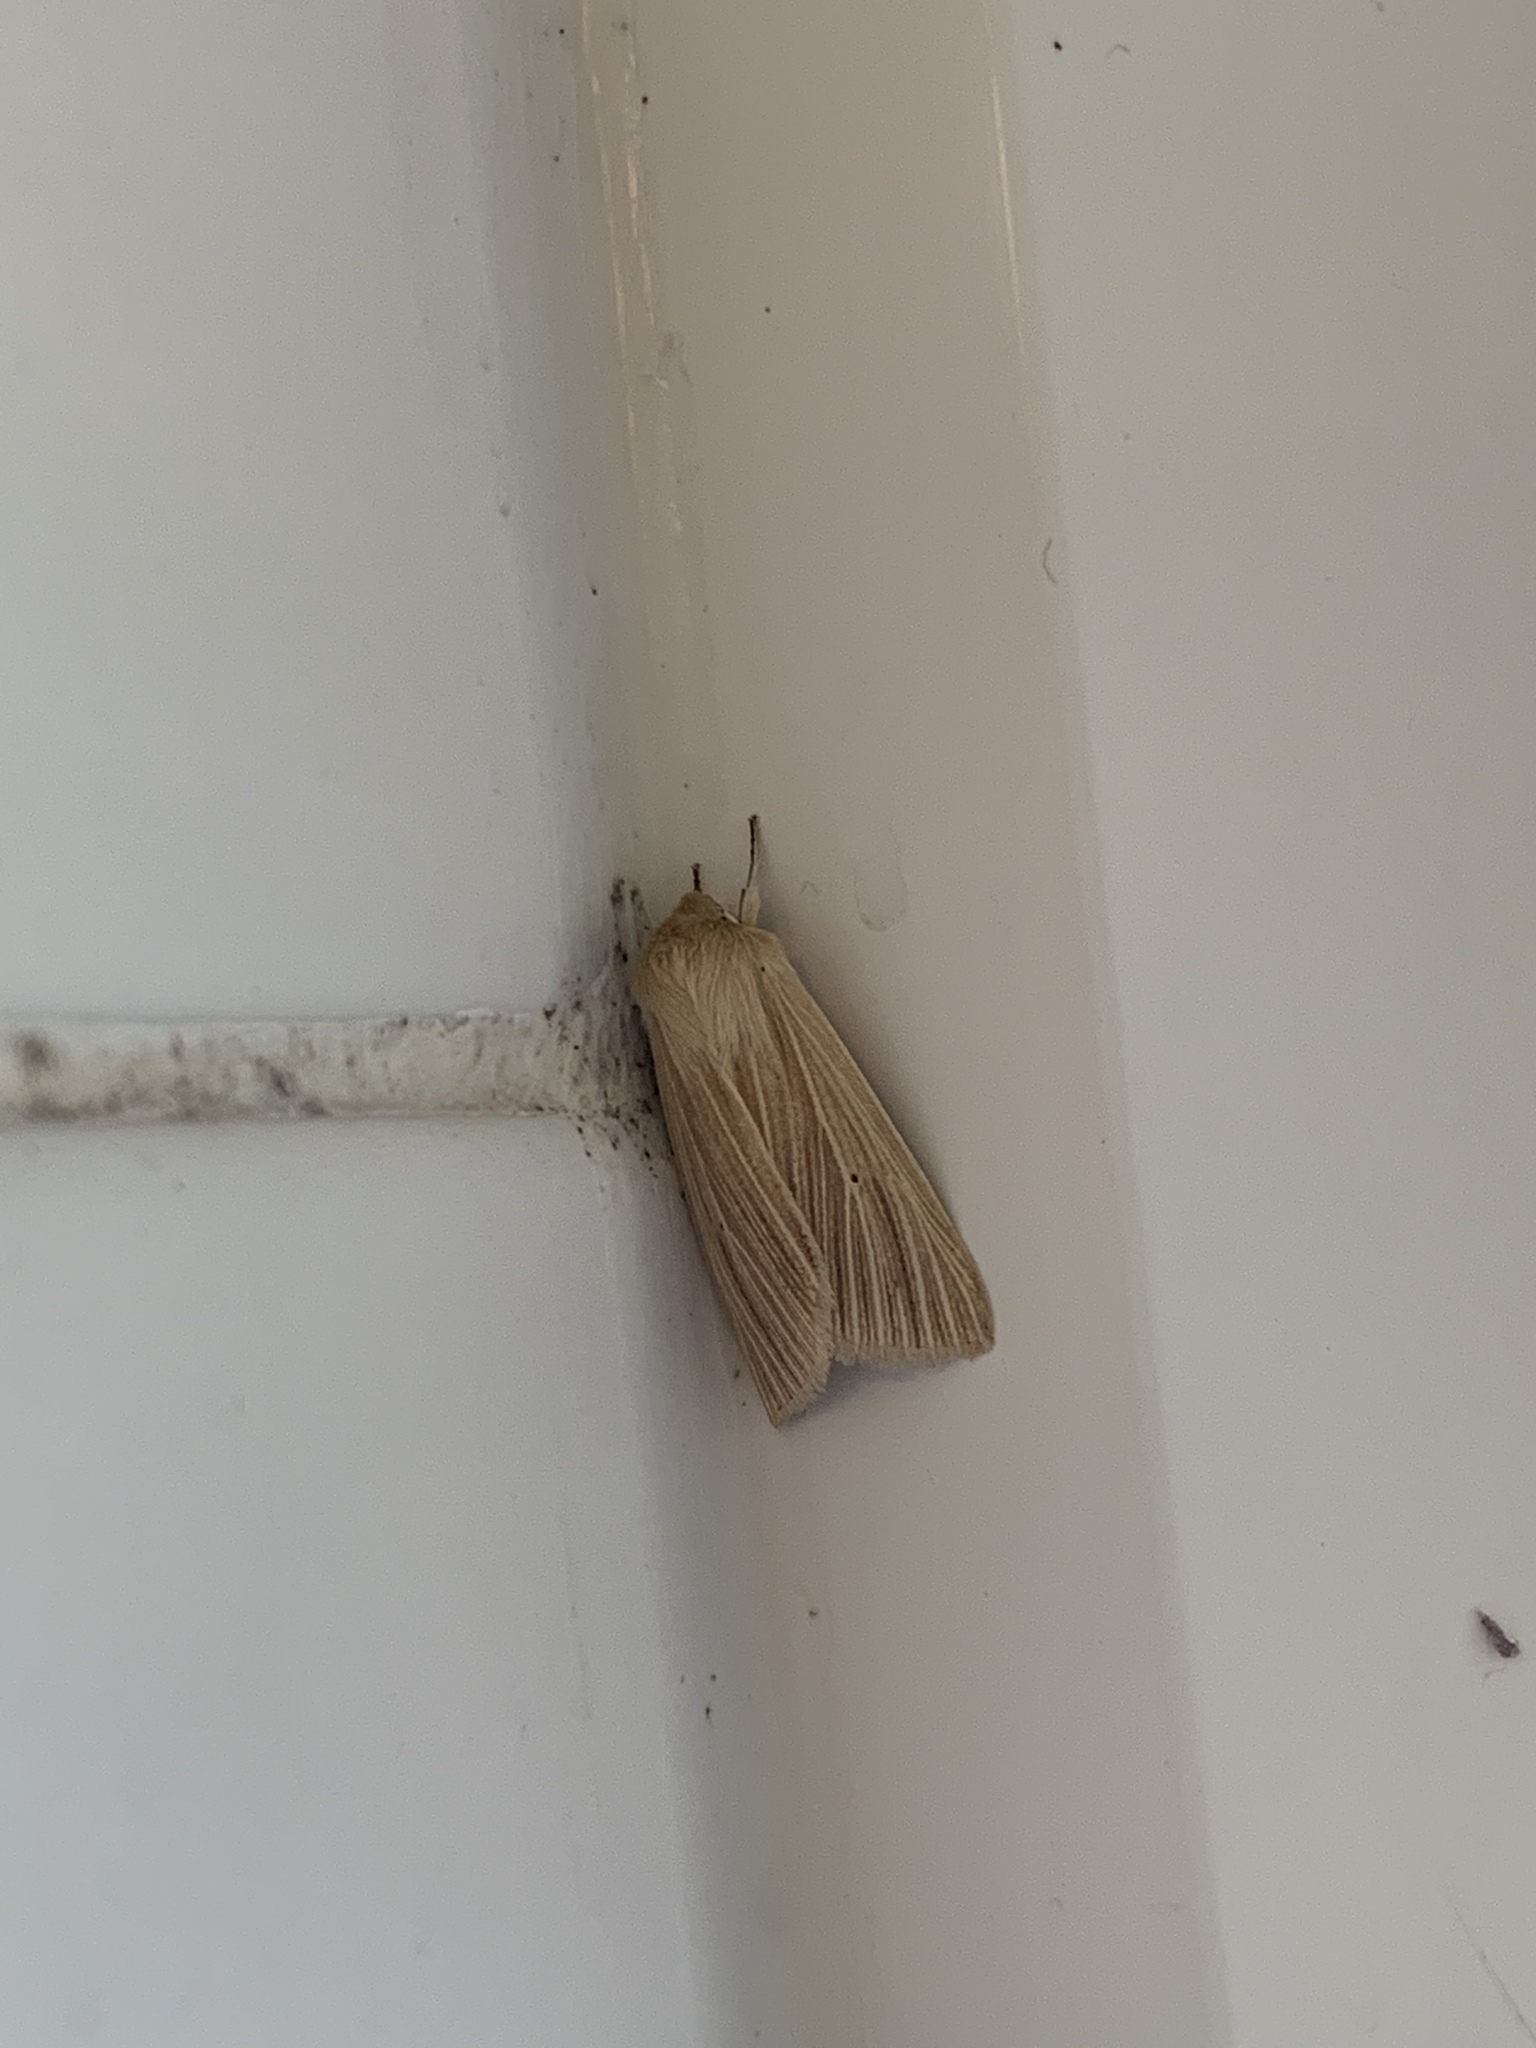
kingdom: Animalia
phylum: Arthropoda
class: Insecta
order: Lepidoptera
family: Noctuidae
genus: Mythimna
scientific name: Mythimna pallens
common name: Common wainscot
